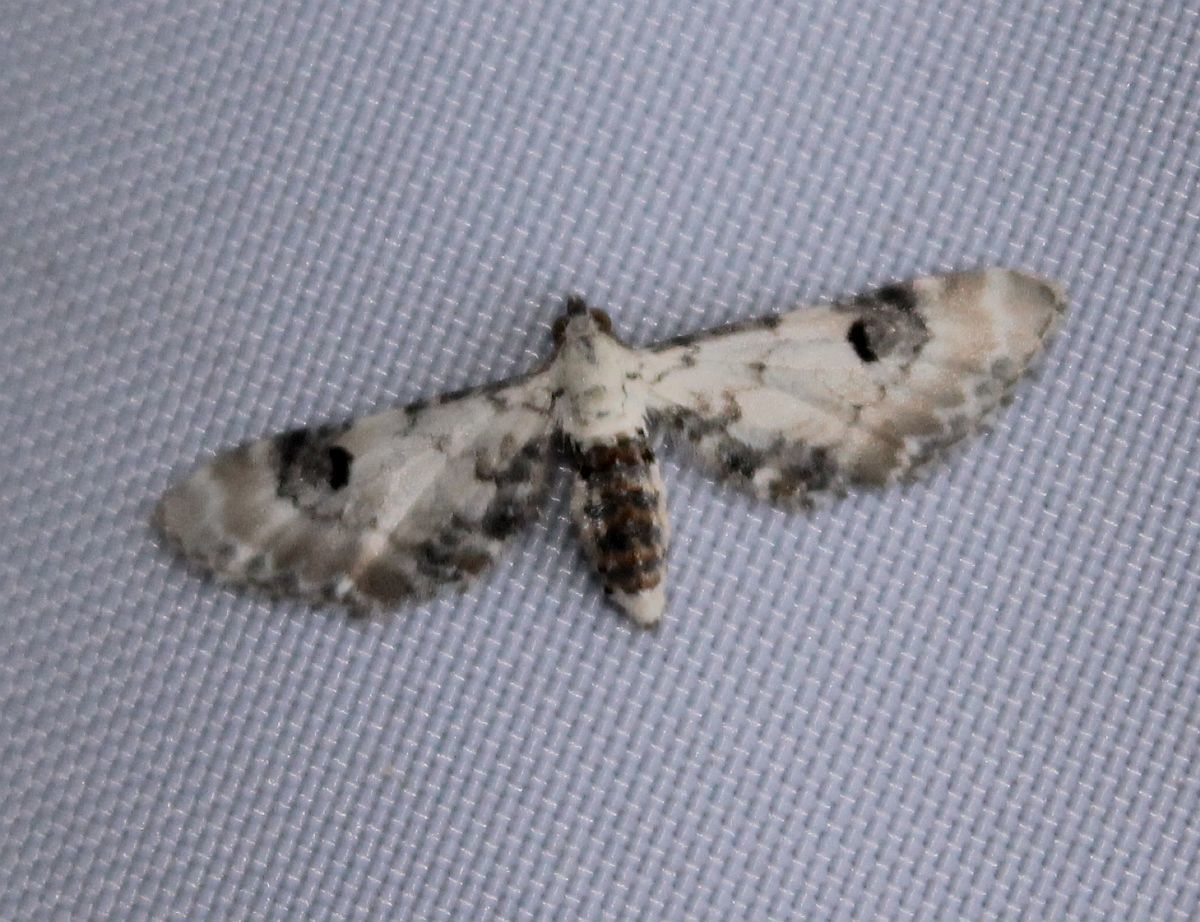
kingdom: Animalia
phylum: Arthropoda
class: Insecta
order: Lepidoptera
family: Geometridae
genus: Eupithecia
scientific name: Eupithecia centaureata
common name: Lime-speck pug
